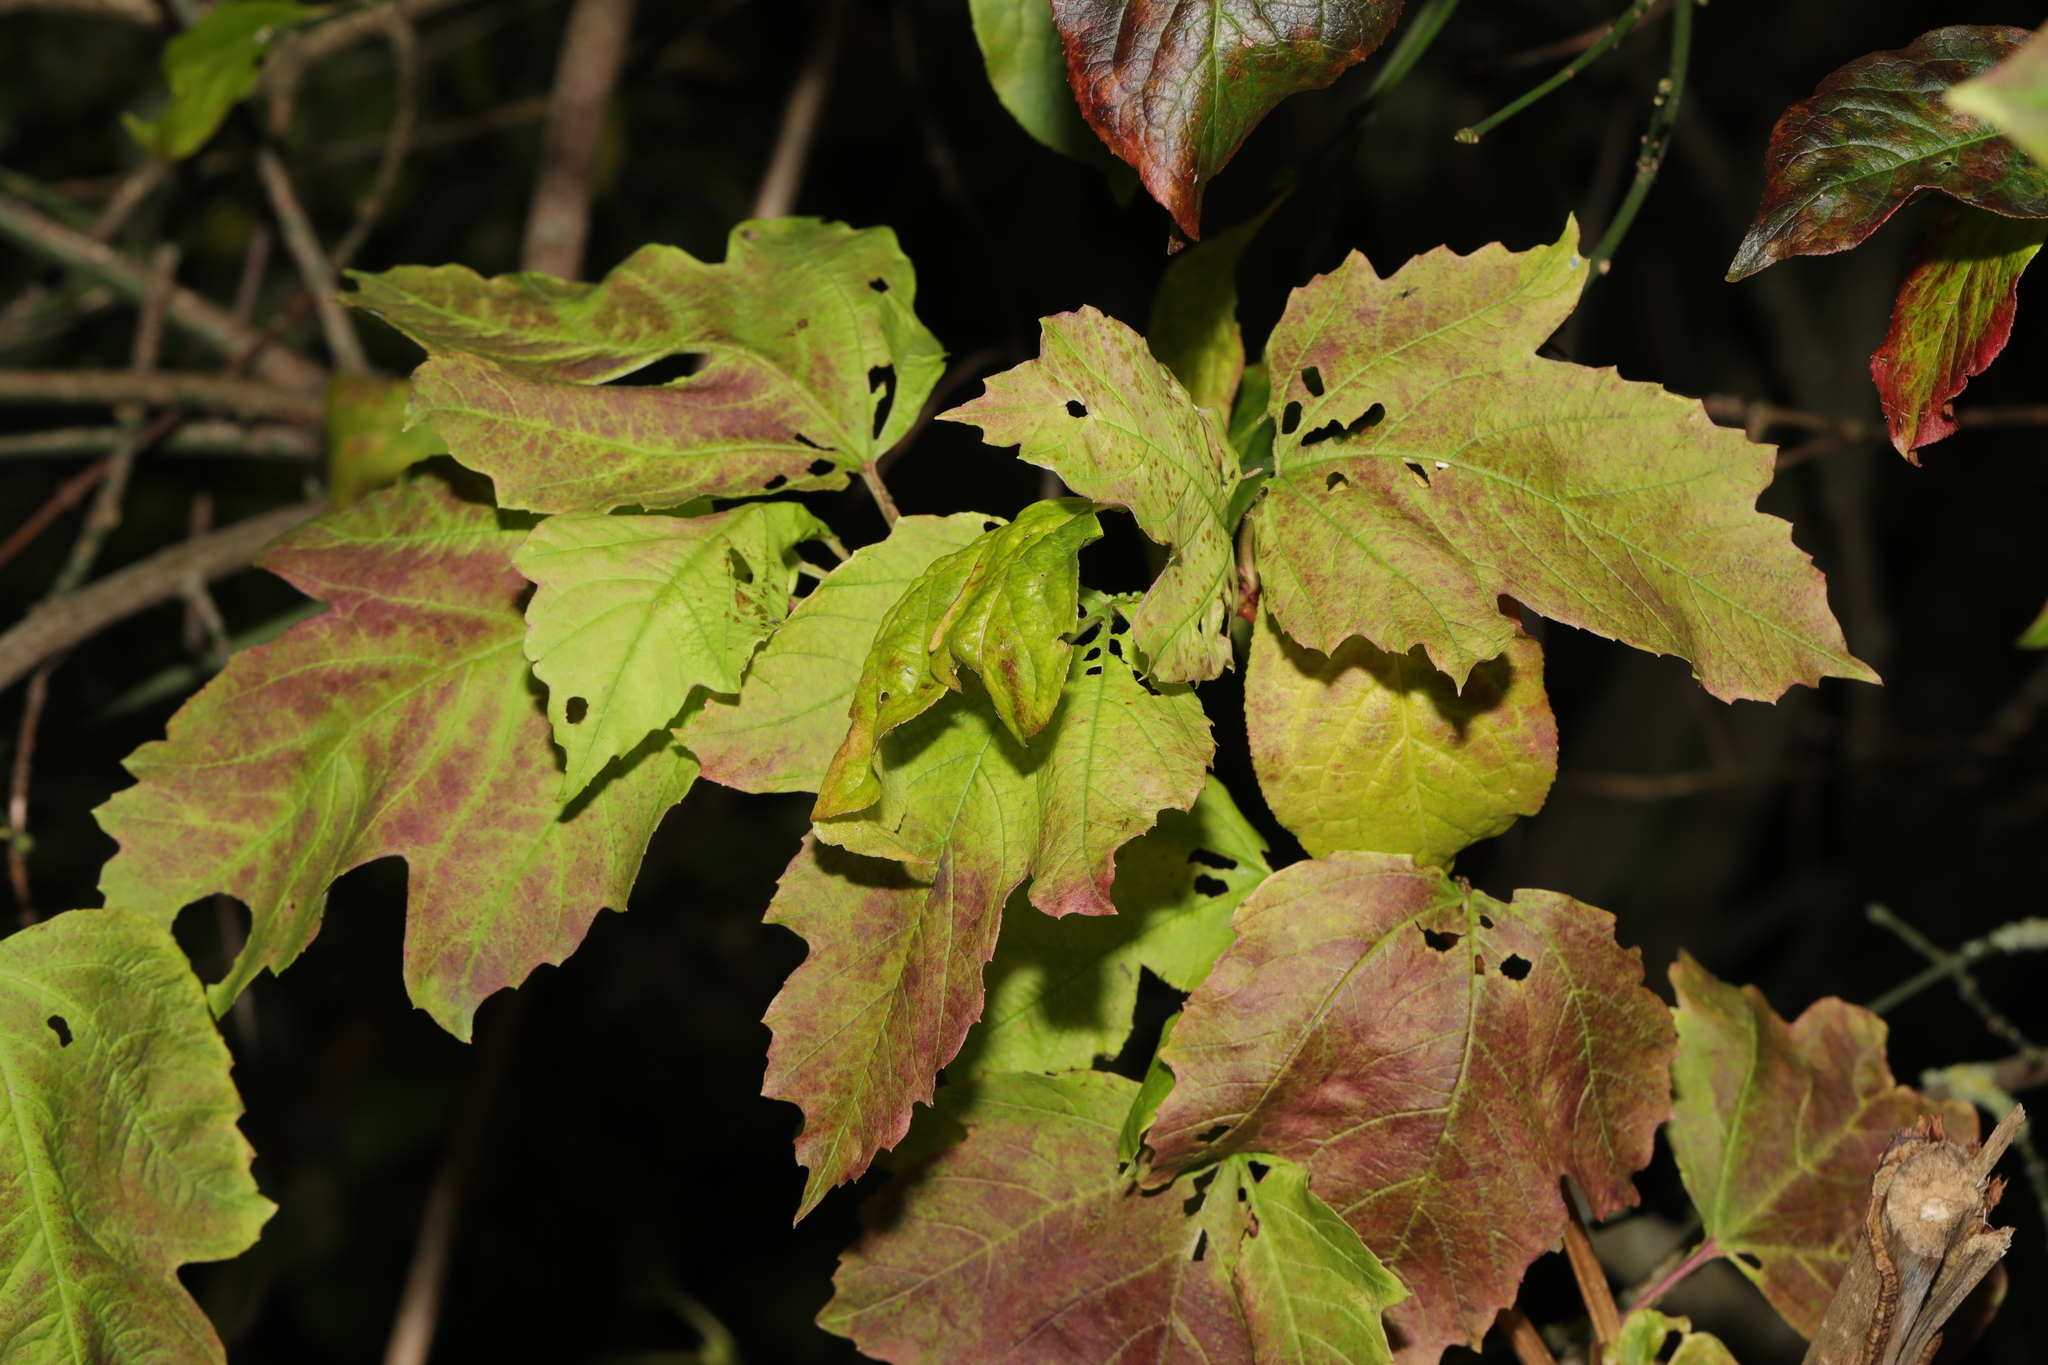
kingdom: Plantae
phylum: Tracheophyta
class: Magnoliopsida
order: Dipsacales
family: Viburnaceae
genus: Viburnum
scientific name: Viburnum opulus
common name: Guelder-rose
